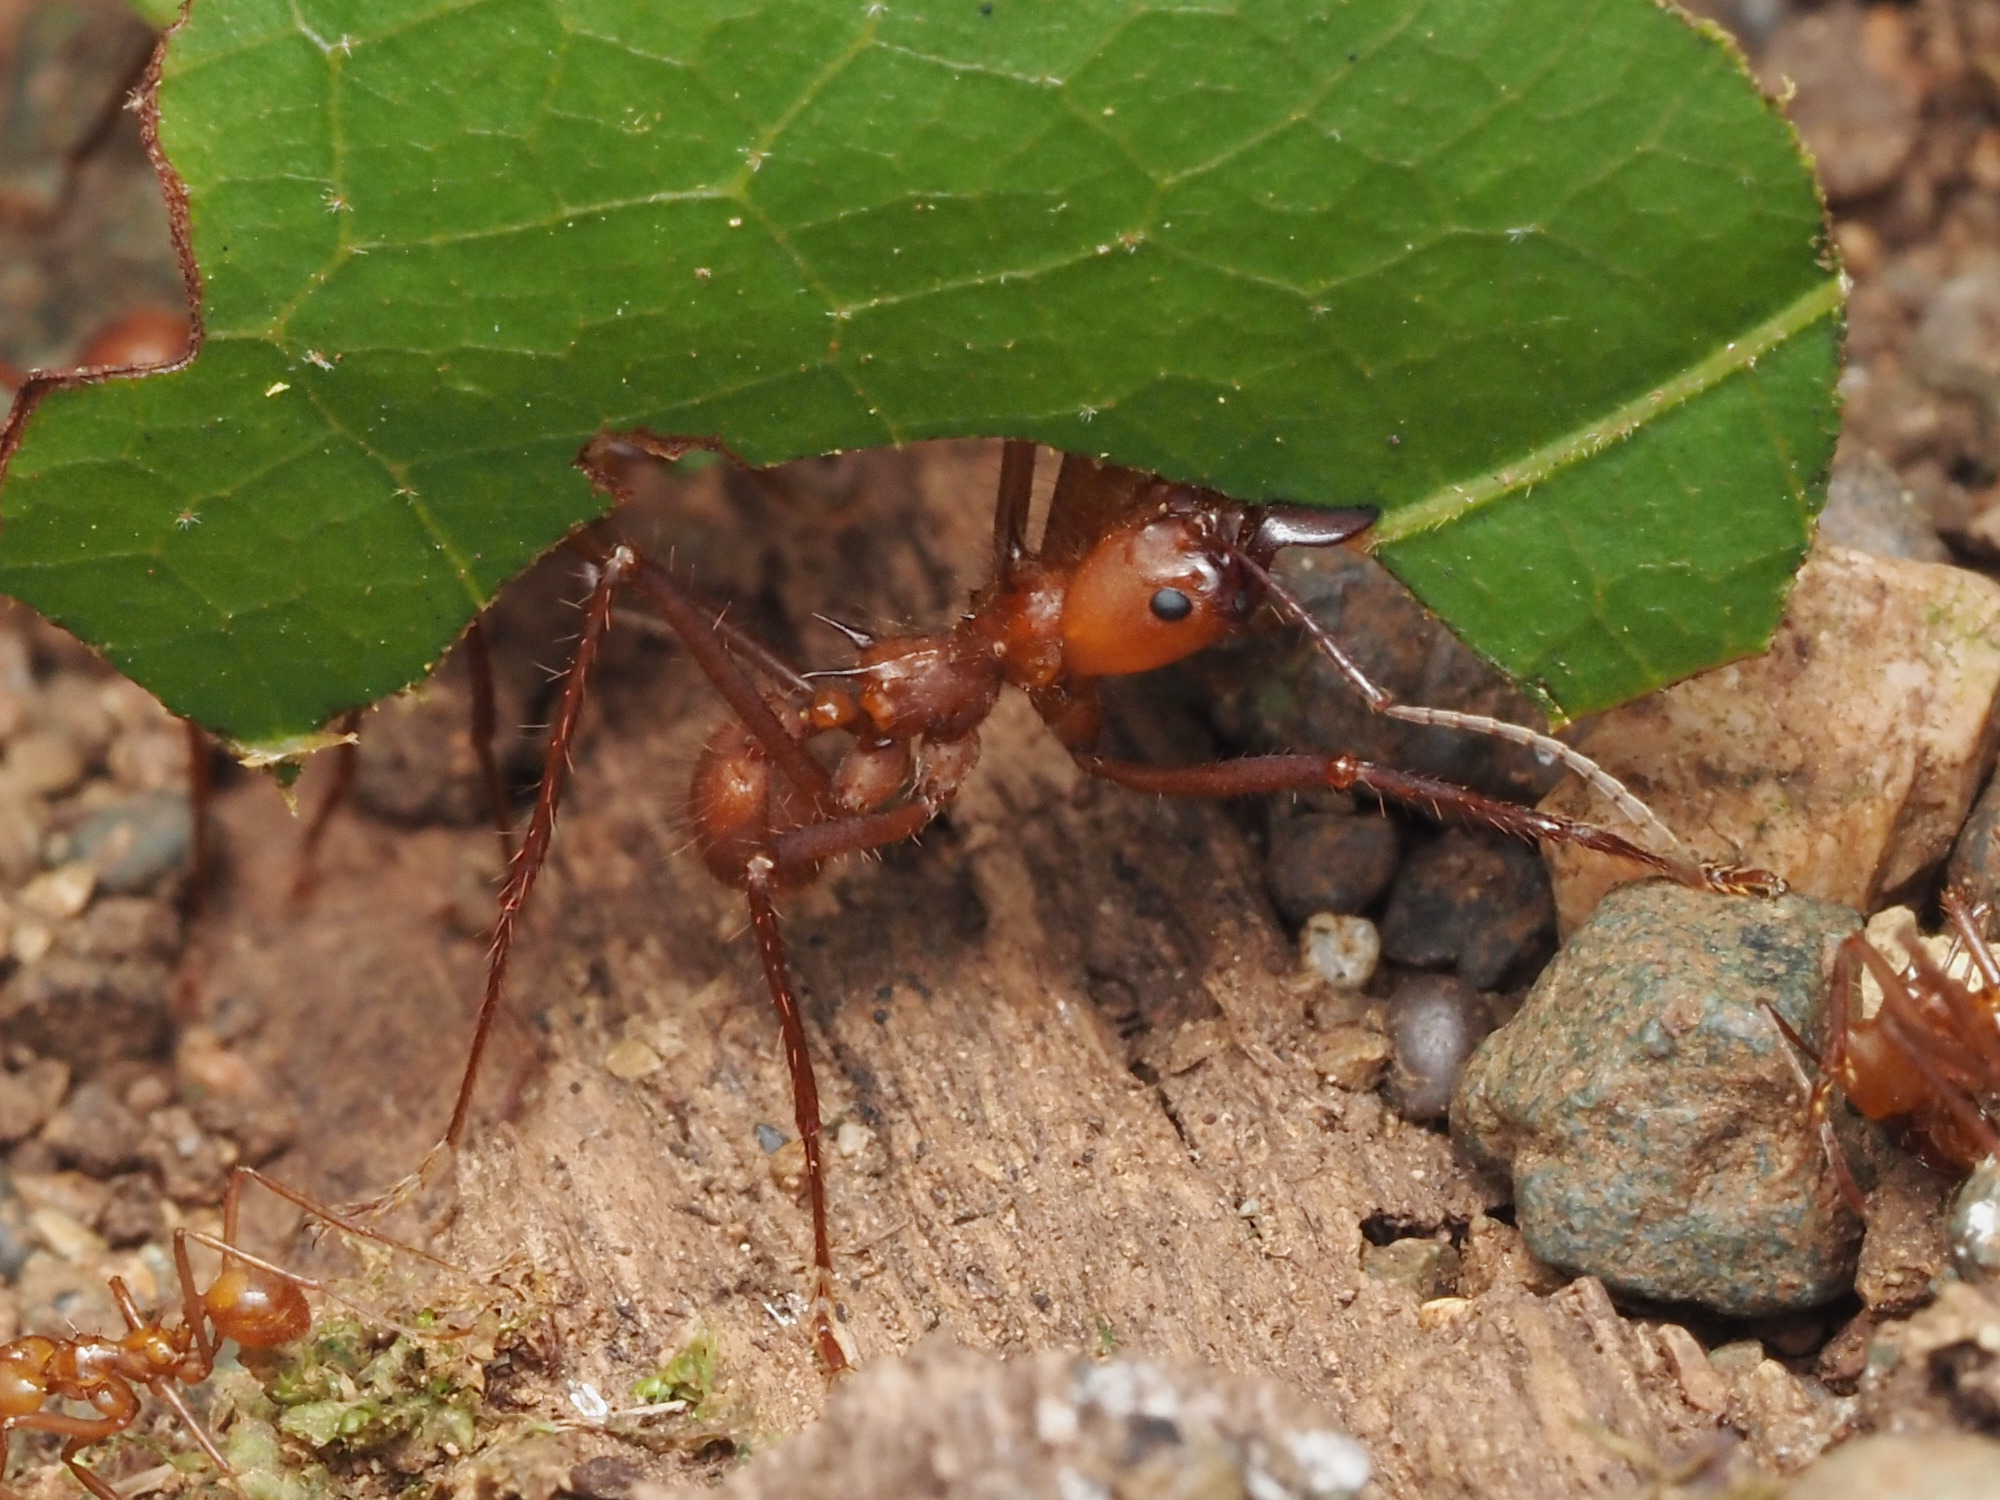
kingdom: Animalia
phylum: Arthropoda
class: Insecta
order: Hymenoptera
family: Formicidae
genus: Atta
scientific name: Atta cephalotes
